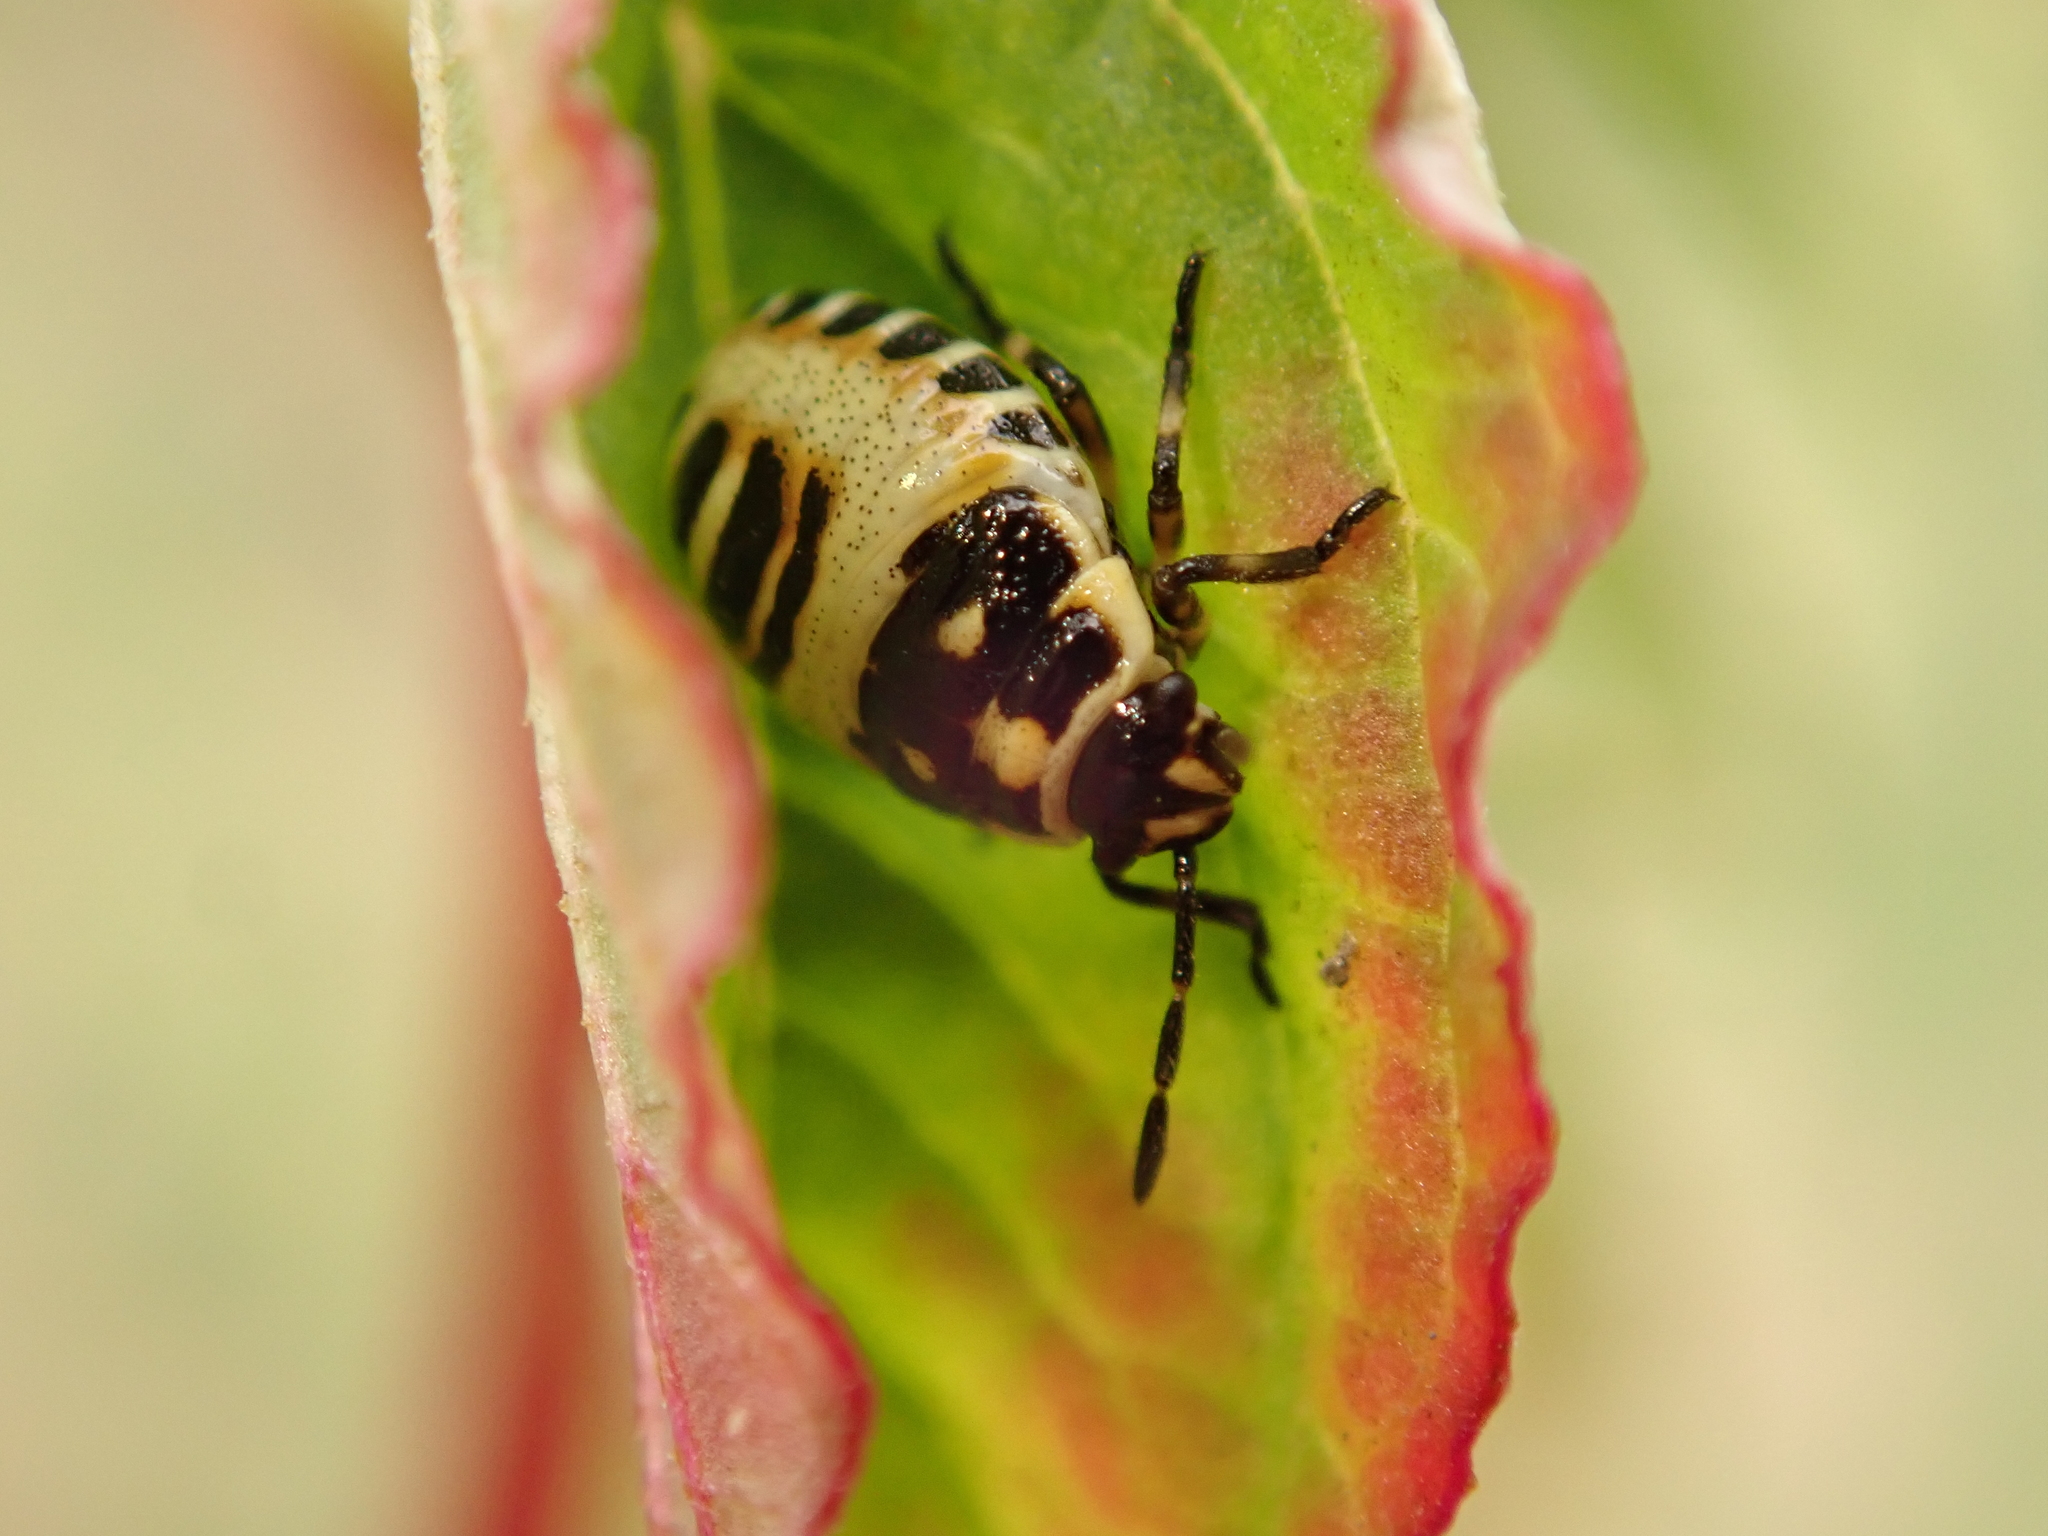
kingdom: Animalia
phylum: Arthropoda
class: Insecta
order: Hemiptera
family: Pentatomidae
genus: Eurydema
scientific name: Eurydema oleracea
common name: Cabbage bug
